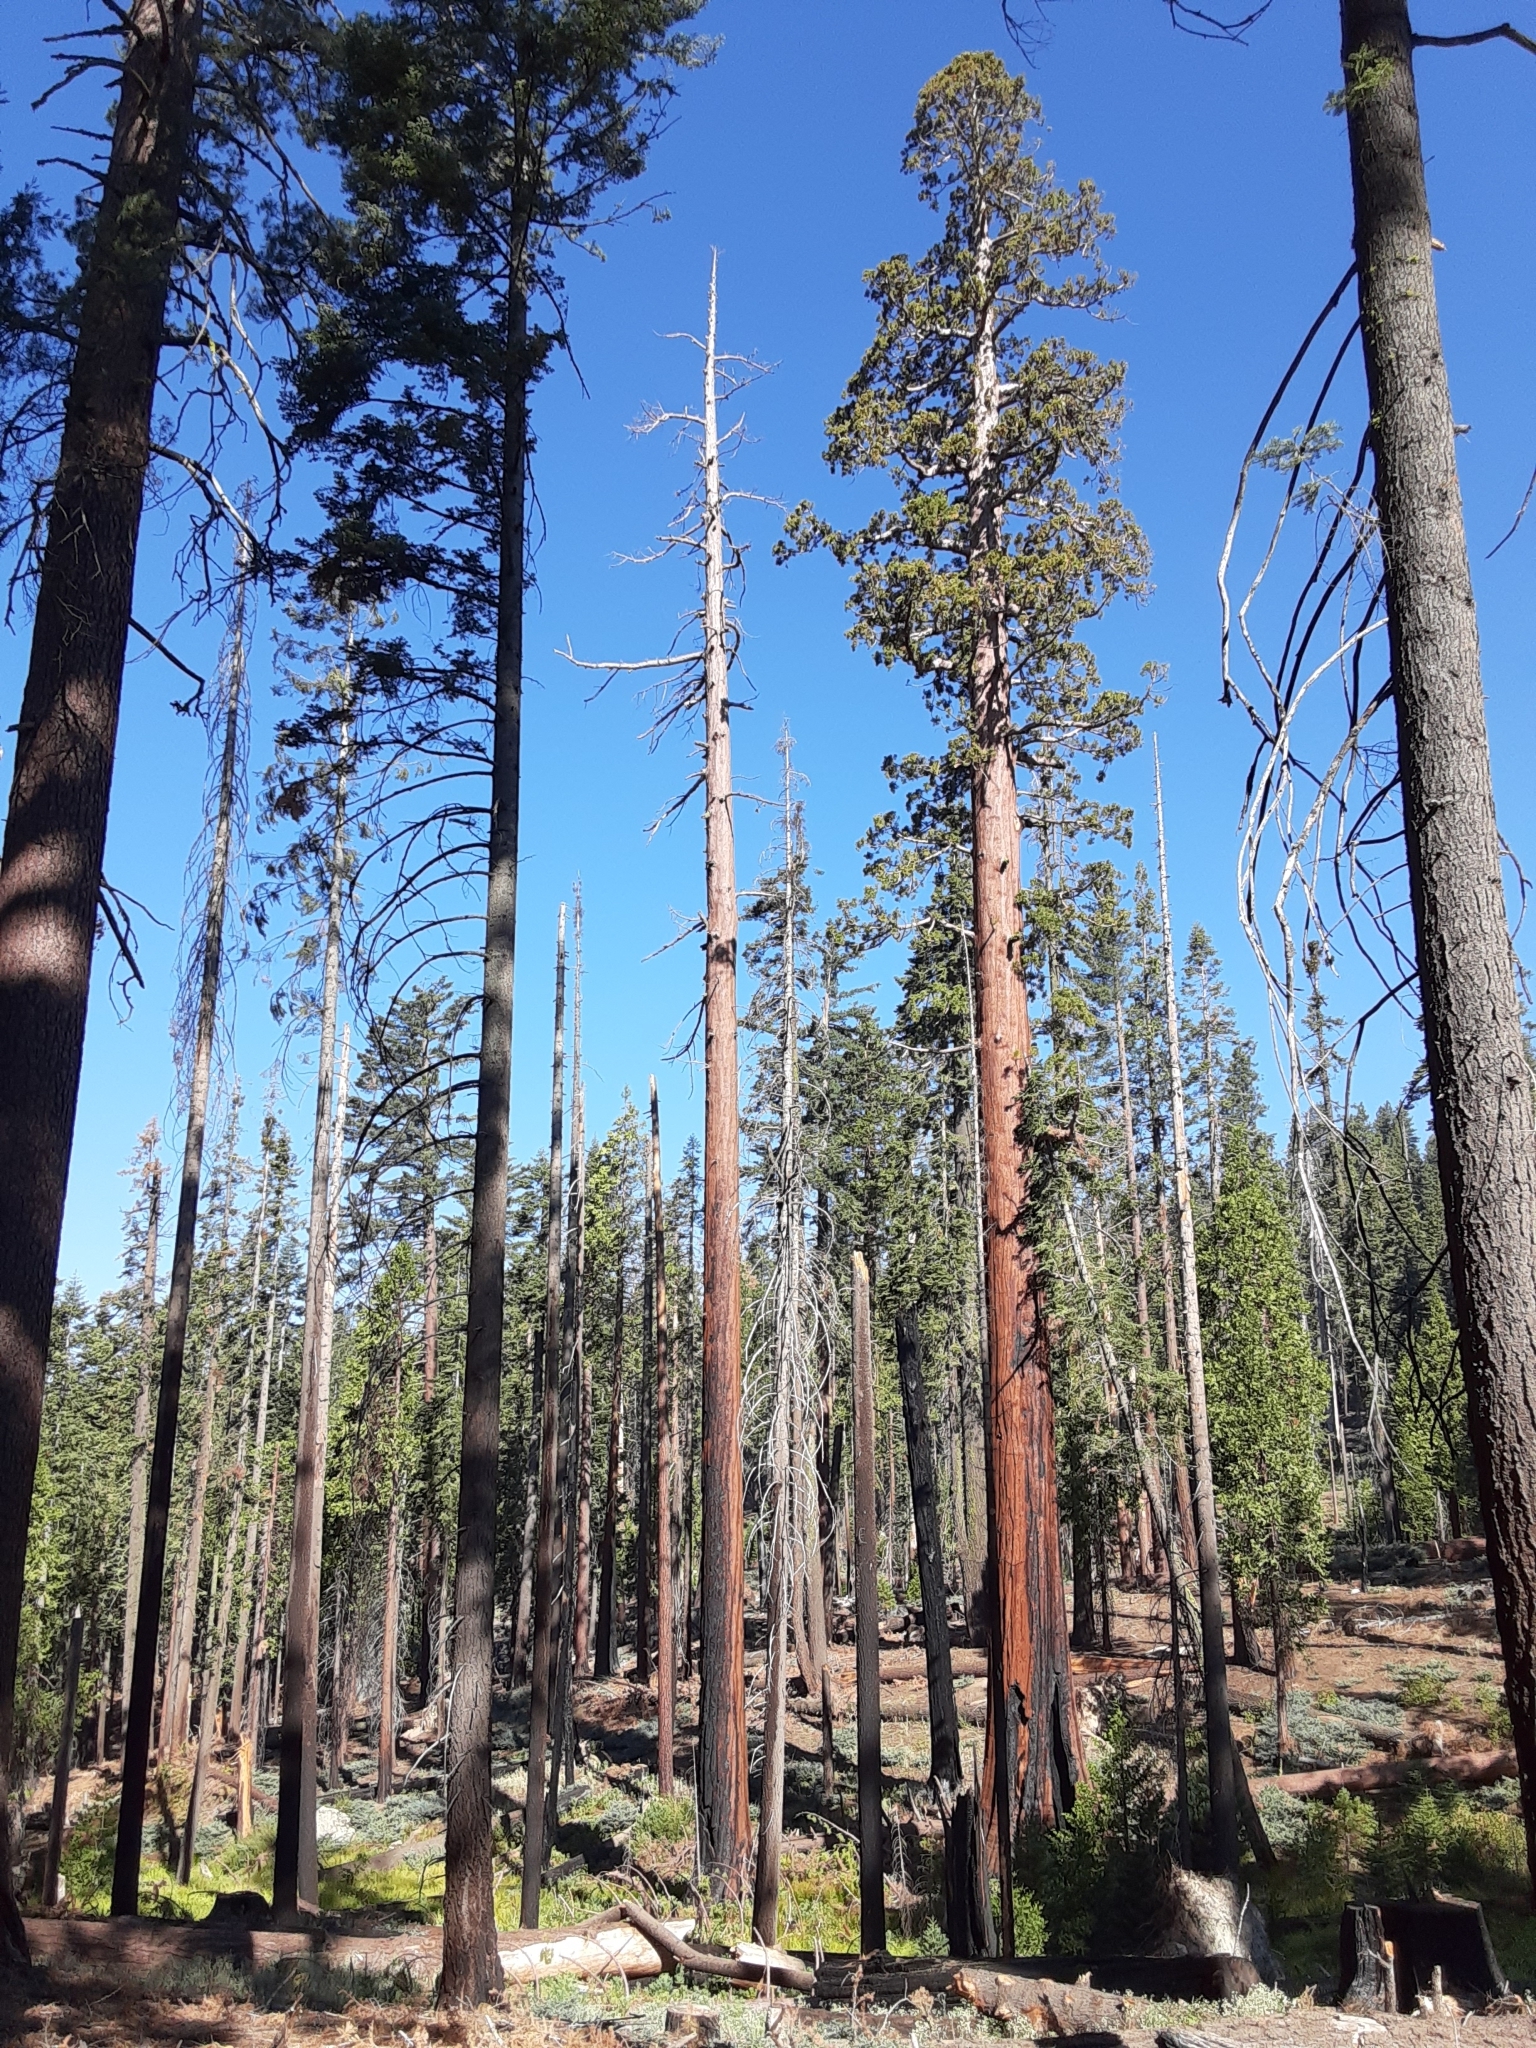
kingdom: Plantae
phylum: Tracheophyta
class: Pinopsida
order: Pinales
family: Cupressaceae
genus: Sequoiadendron
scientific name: Sequoiadendron giganteum
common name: Wellingtonia
